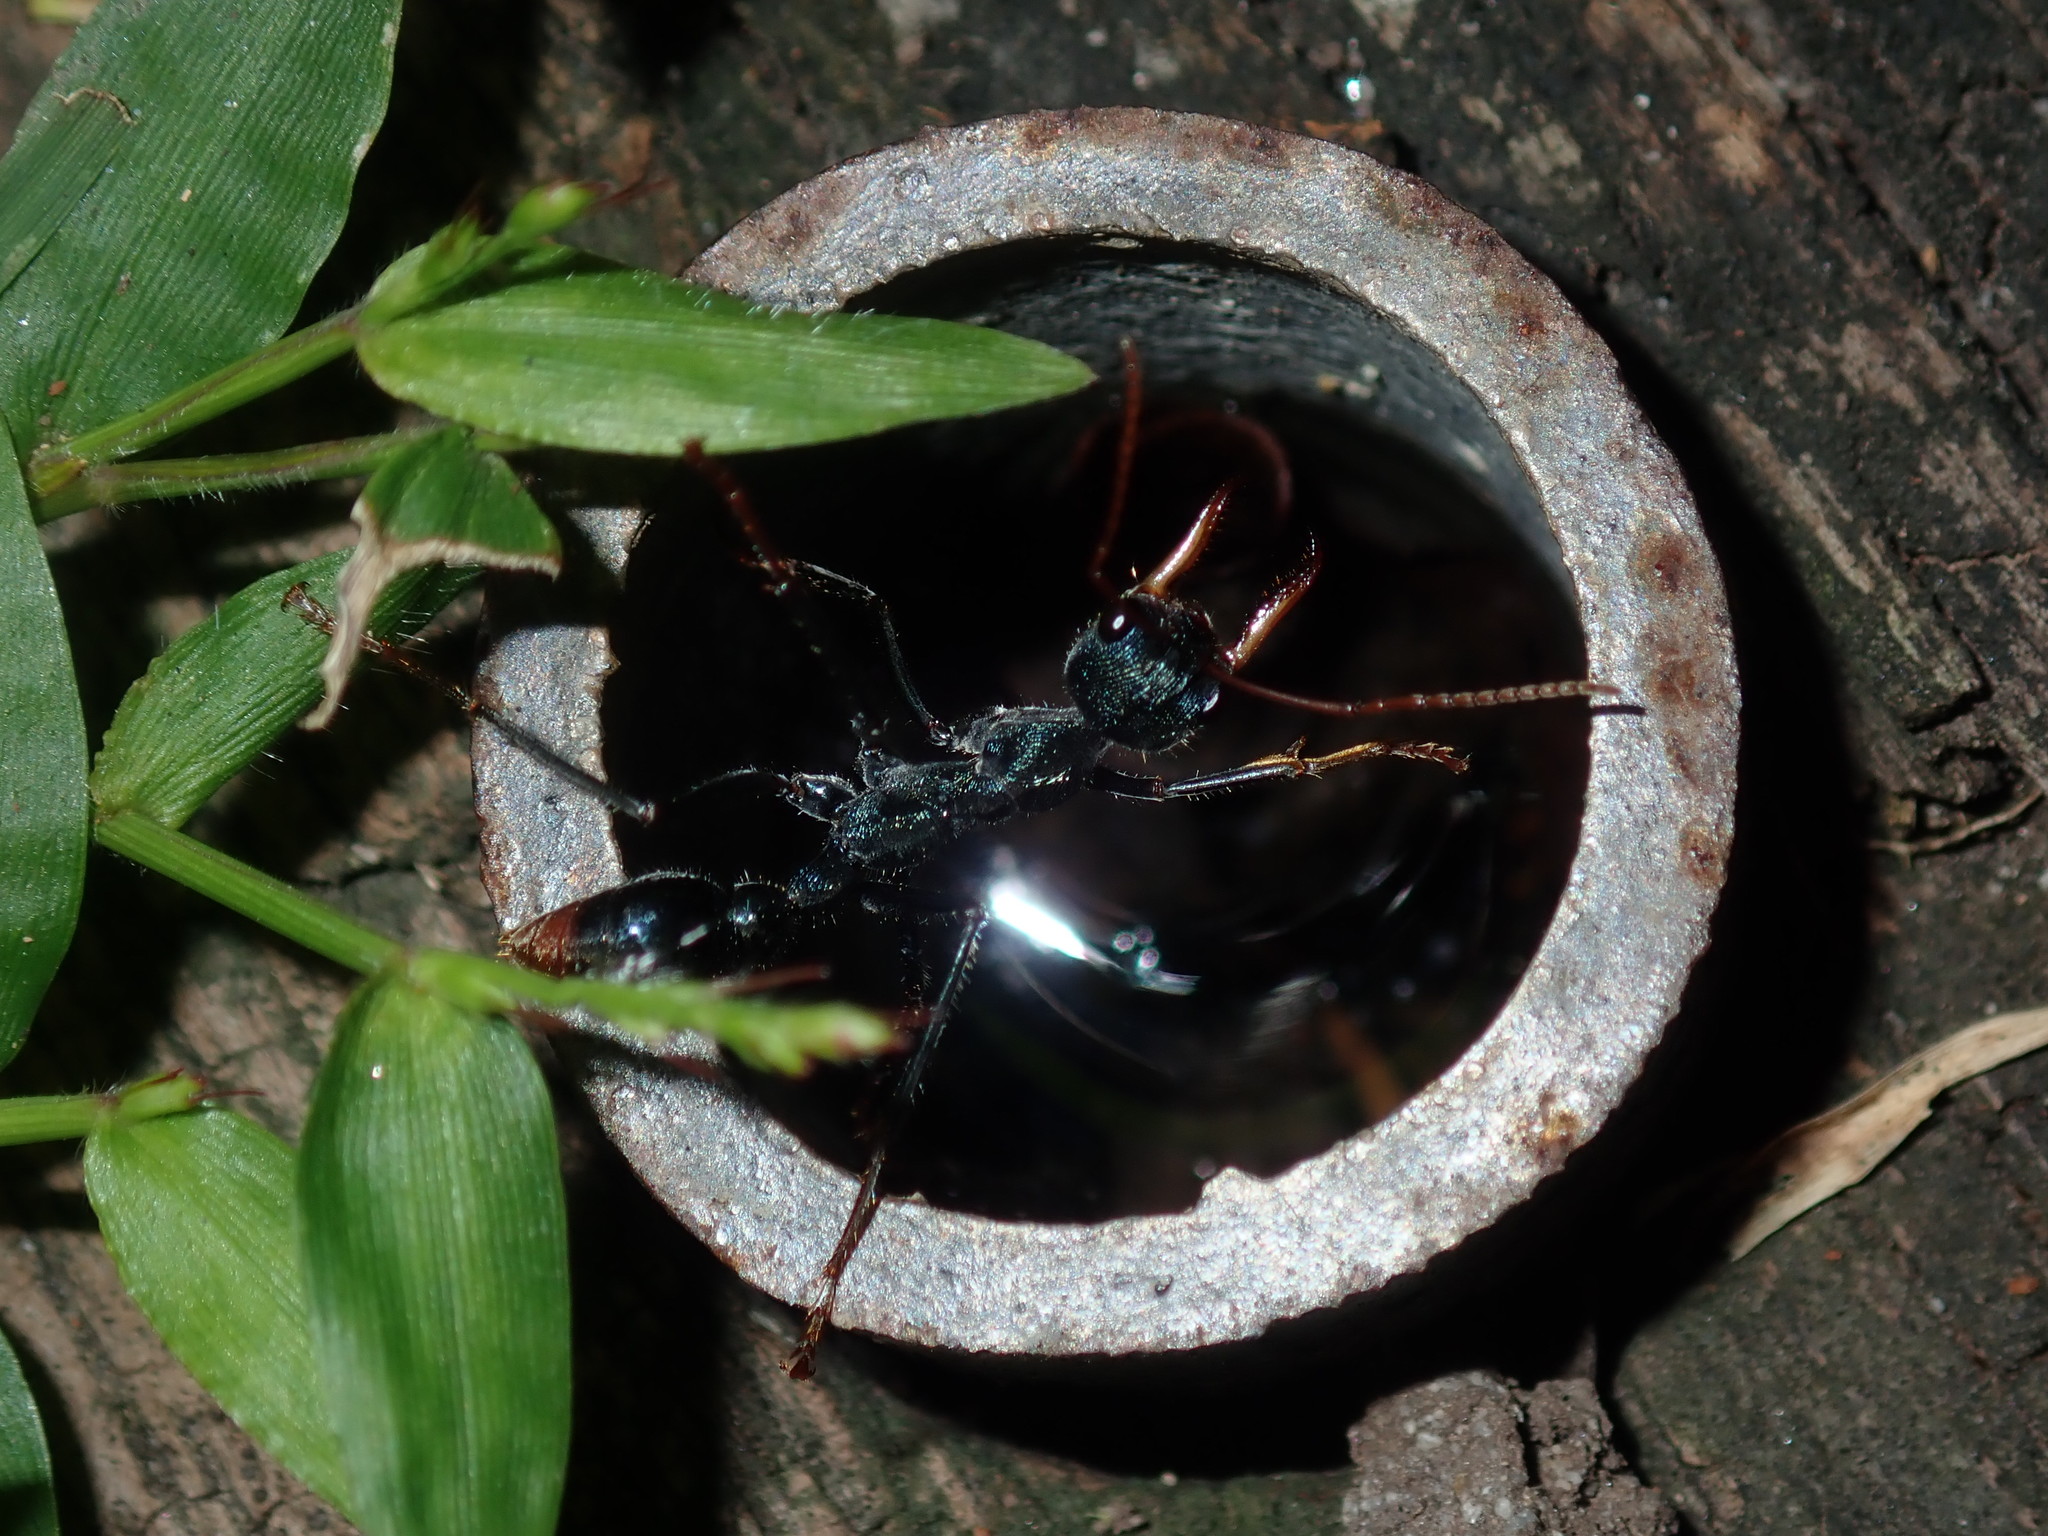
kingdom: Animalia
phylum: Arthropoda
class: Insecta
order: Hymenoptera
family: Formicidae
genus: Myrmecia
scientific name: Myrmecia tarsata
